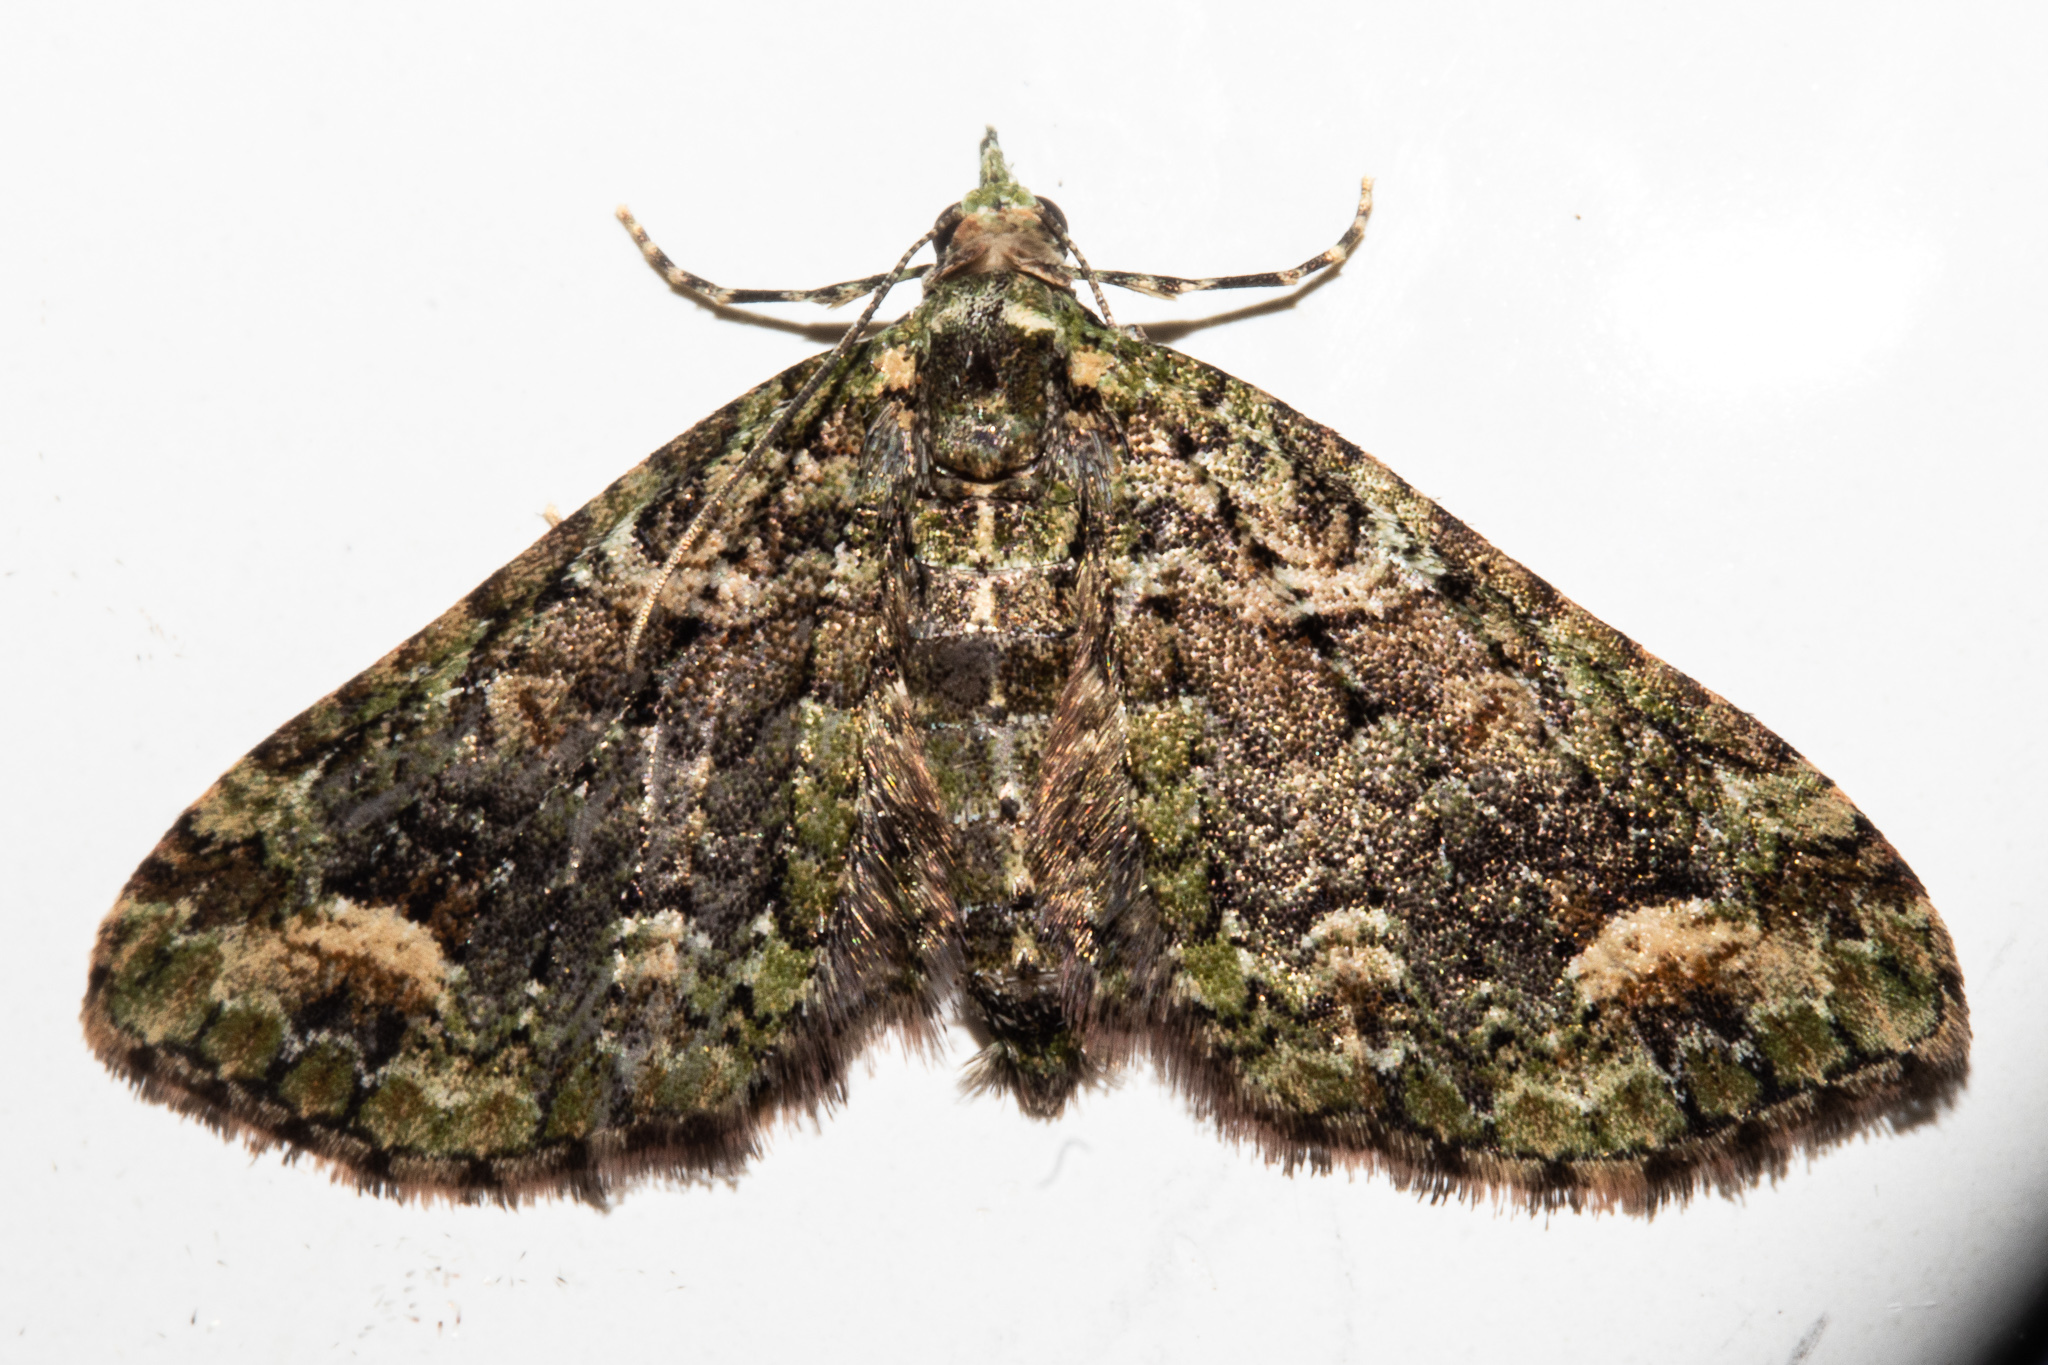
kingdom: Animalia
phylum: Arthropoda
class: Insecta
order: Lepidoptera
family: Geometridae
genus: Idaea
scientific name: Idaea mutanda
